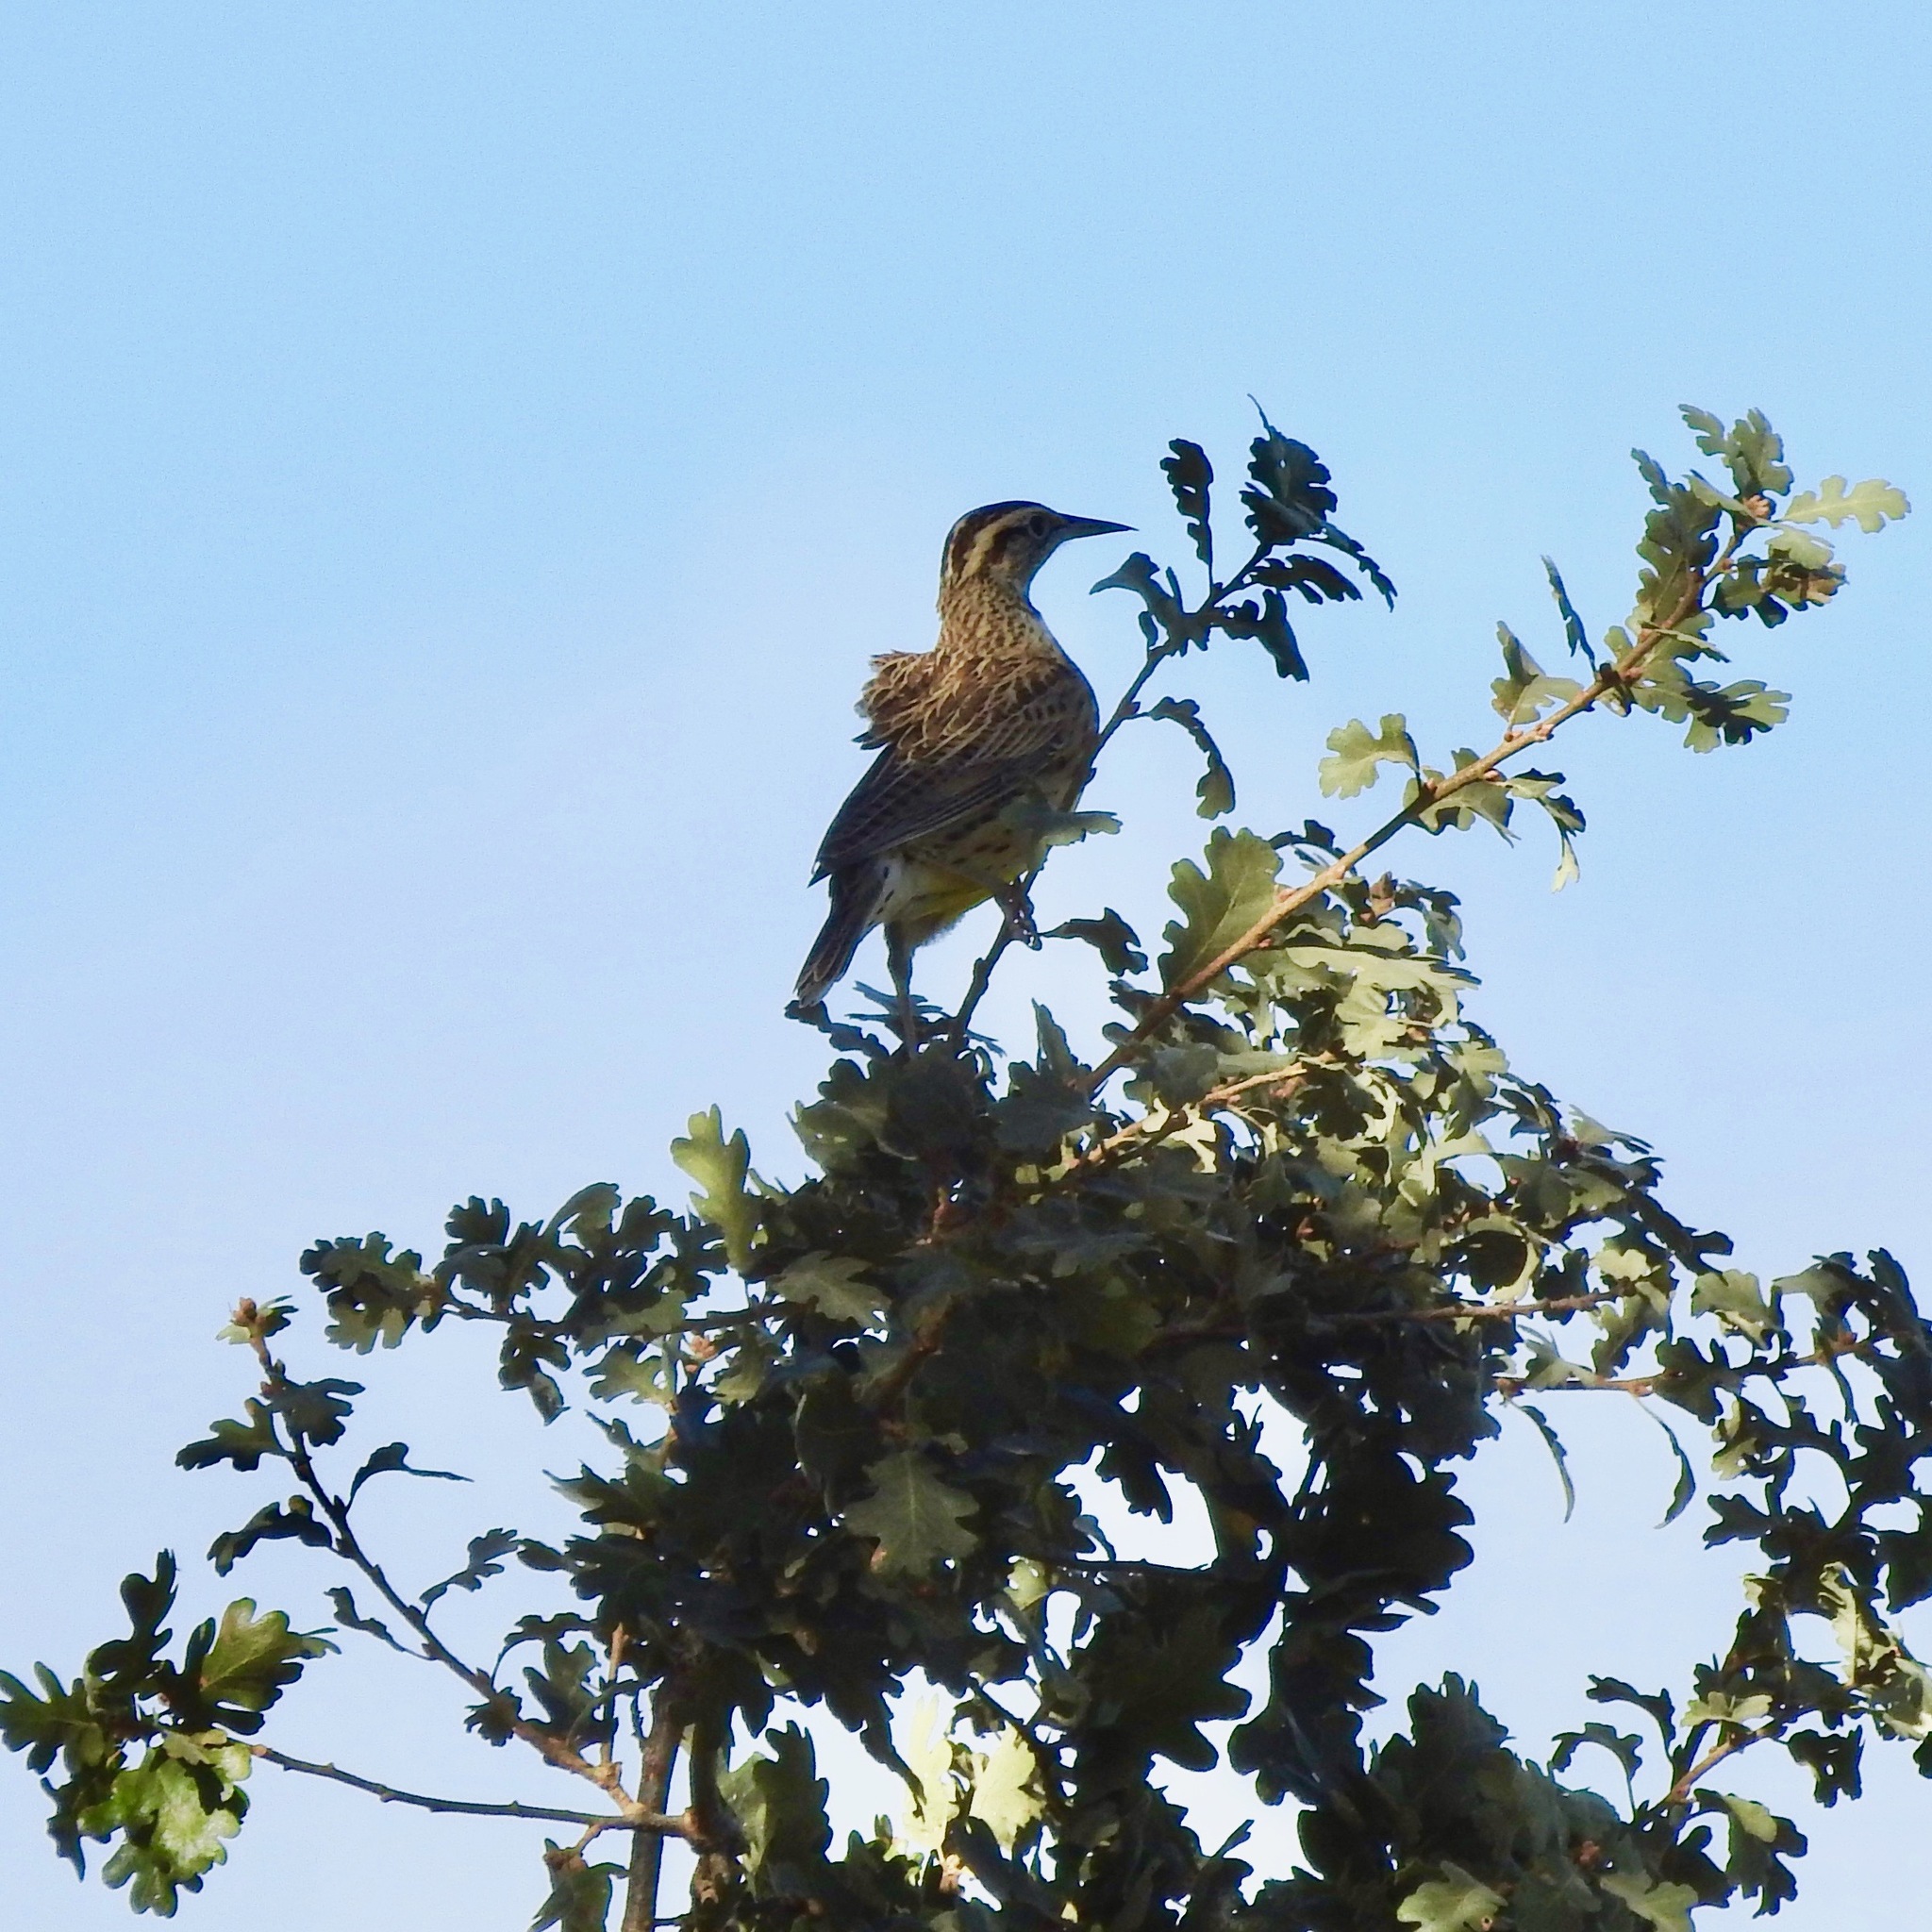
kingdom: Animalia
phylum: Chordata
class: Aves
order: Passeriformes
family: Icteridae
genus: Sturnella
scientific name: Sturnella neglecta
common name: Western meadowlark
